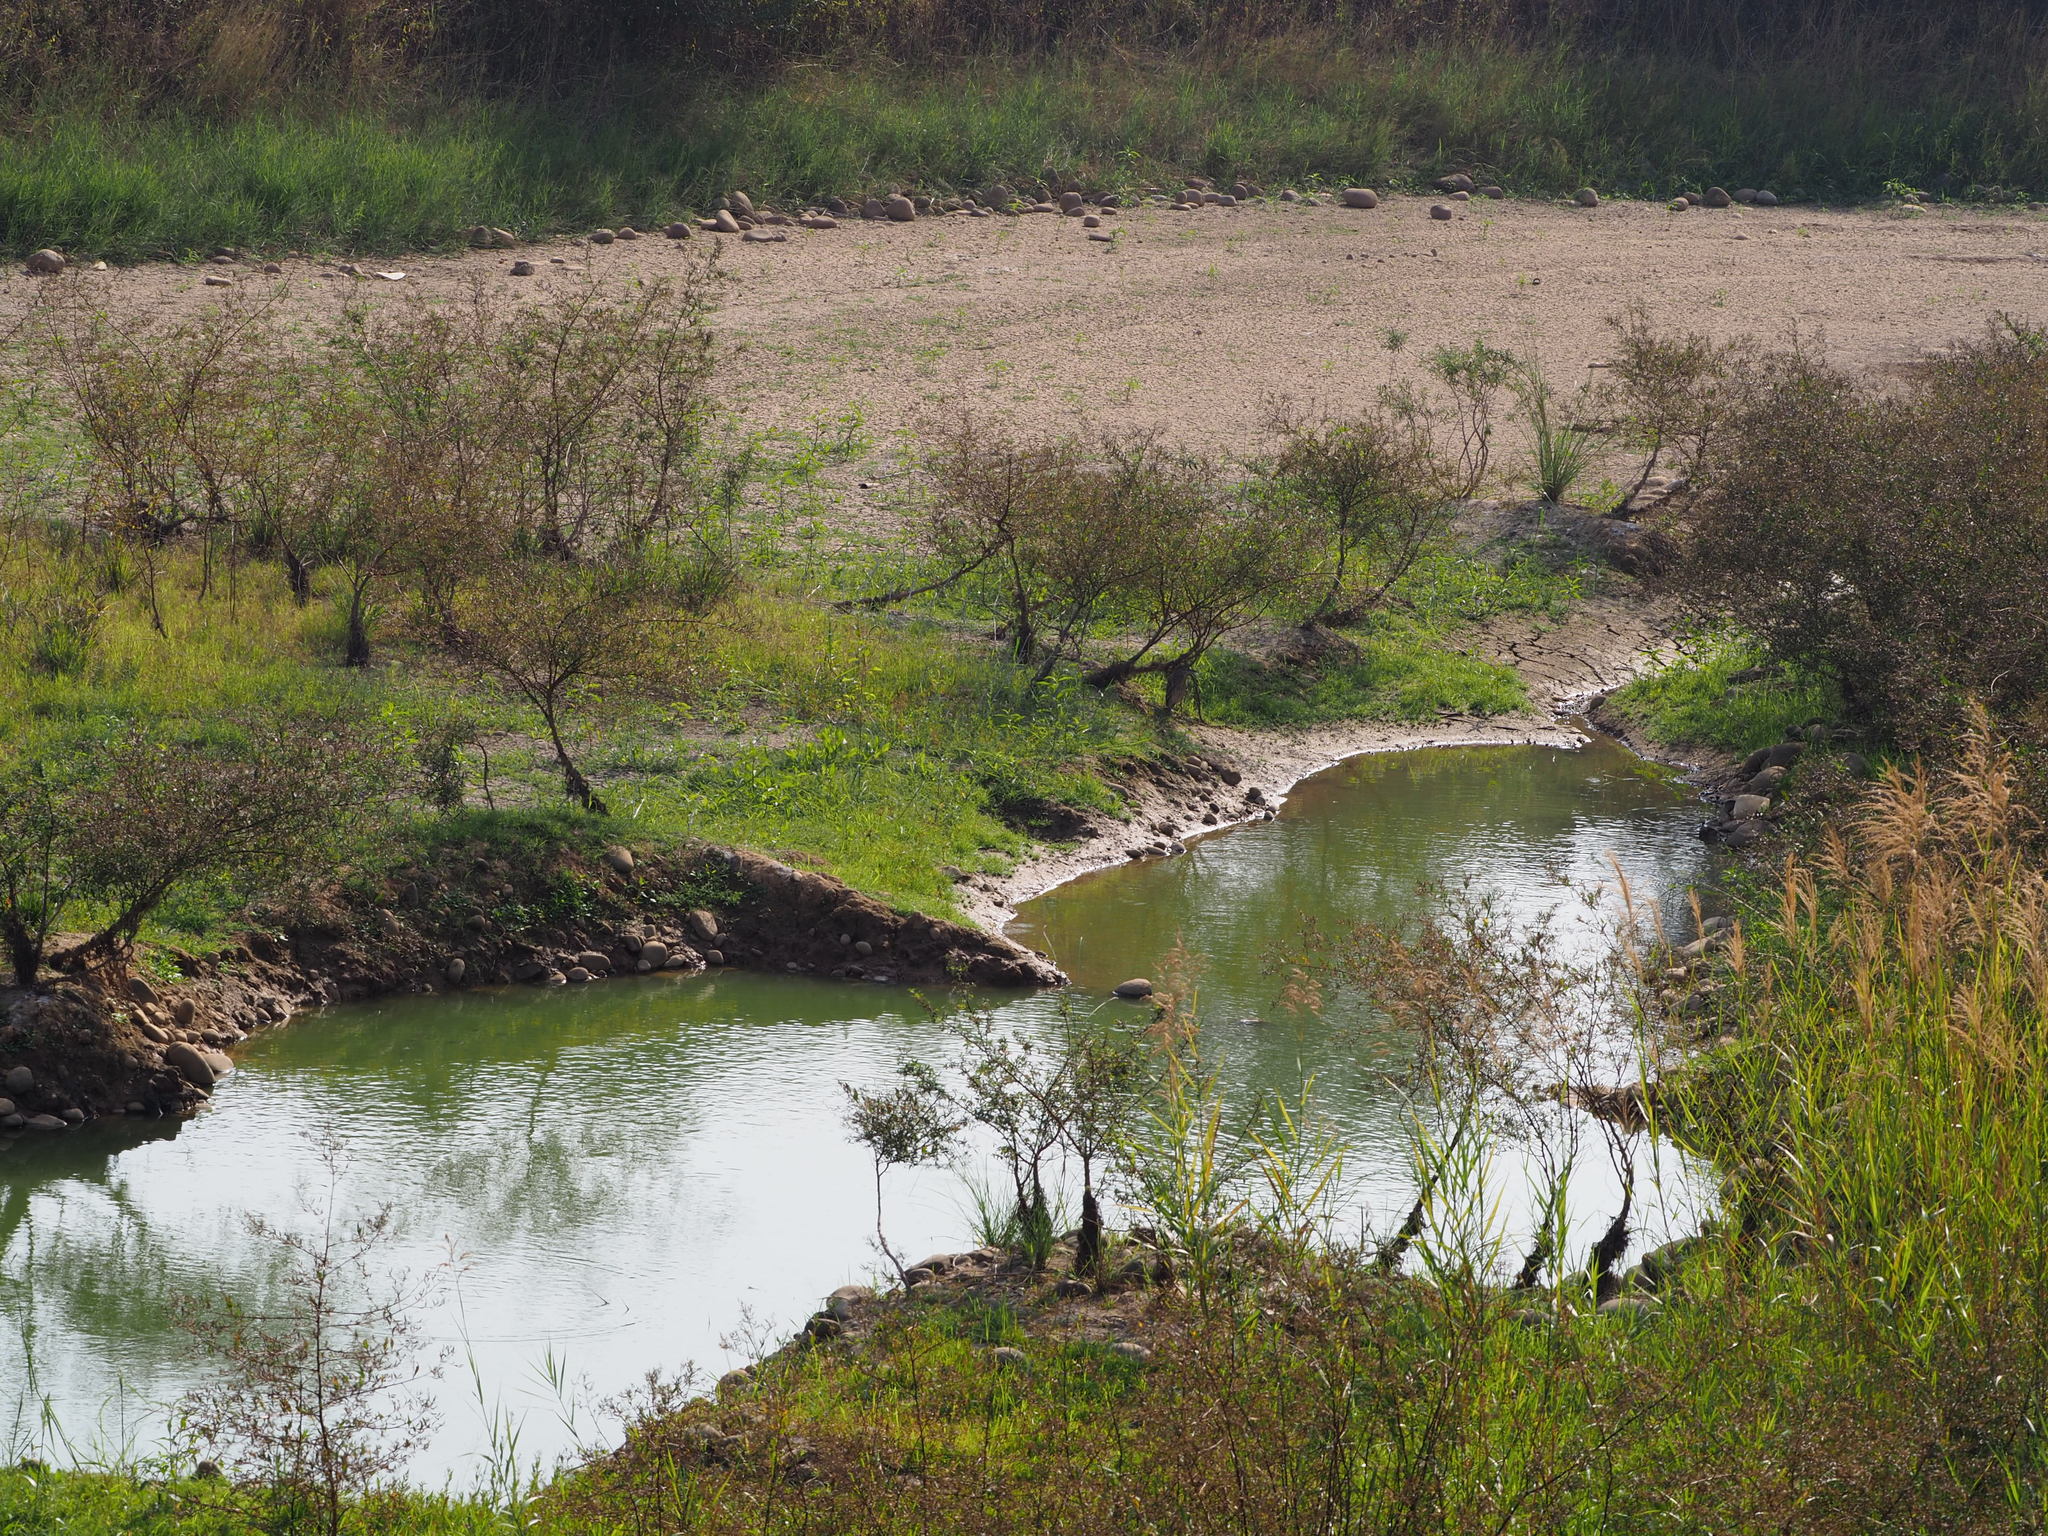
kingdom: Plantae
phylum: Tracheophyta
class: Liliopsida
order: Poales
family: Poaceae
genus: Phragmites
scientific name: Phragmites karka
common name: Tropical reed
